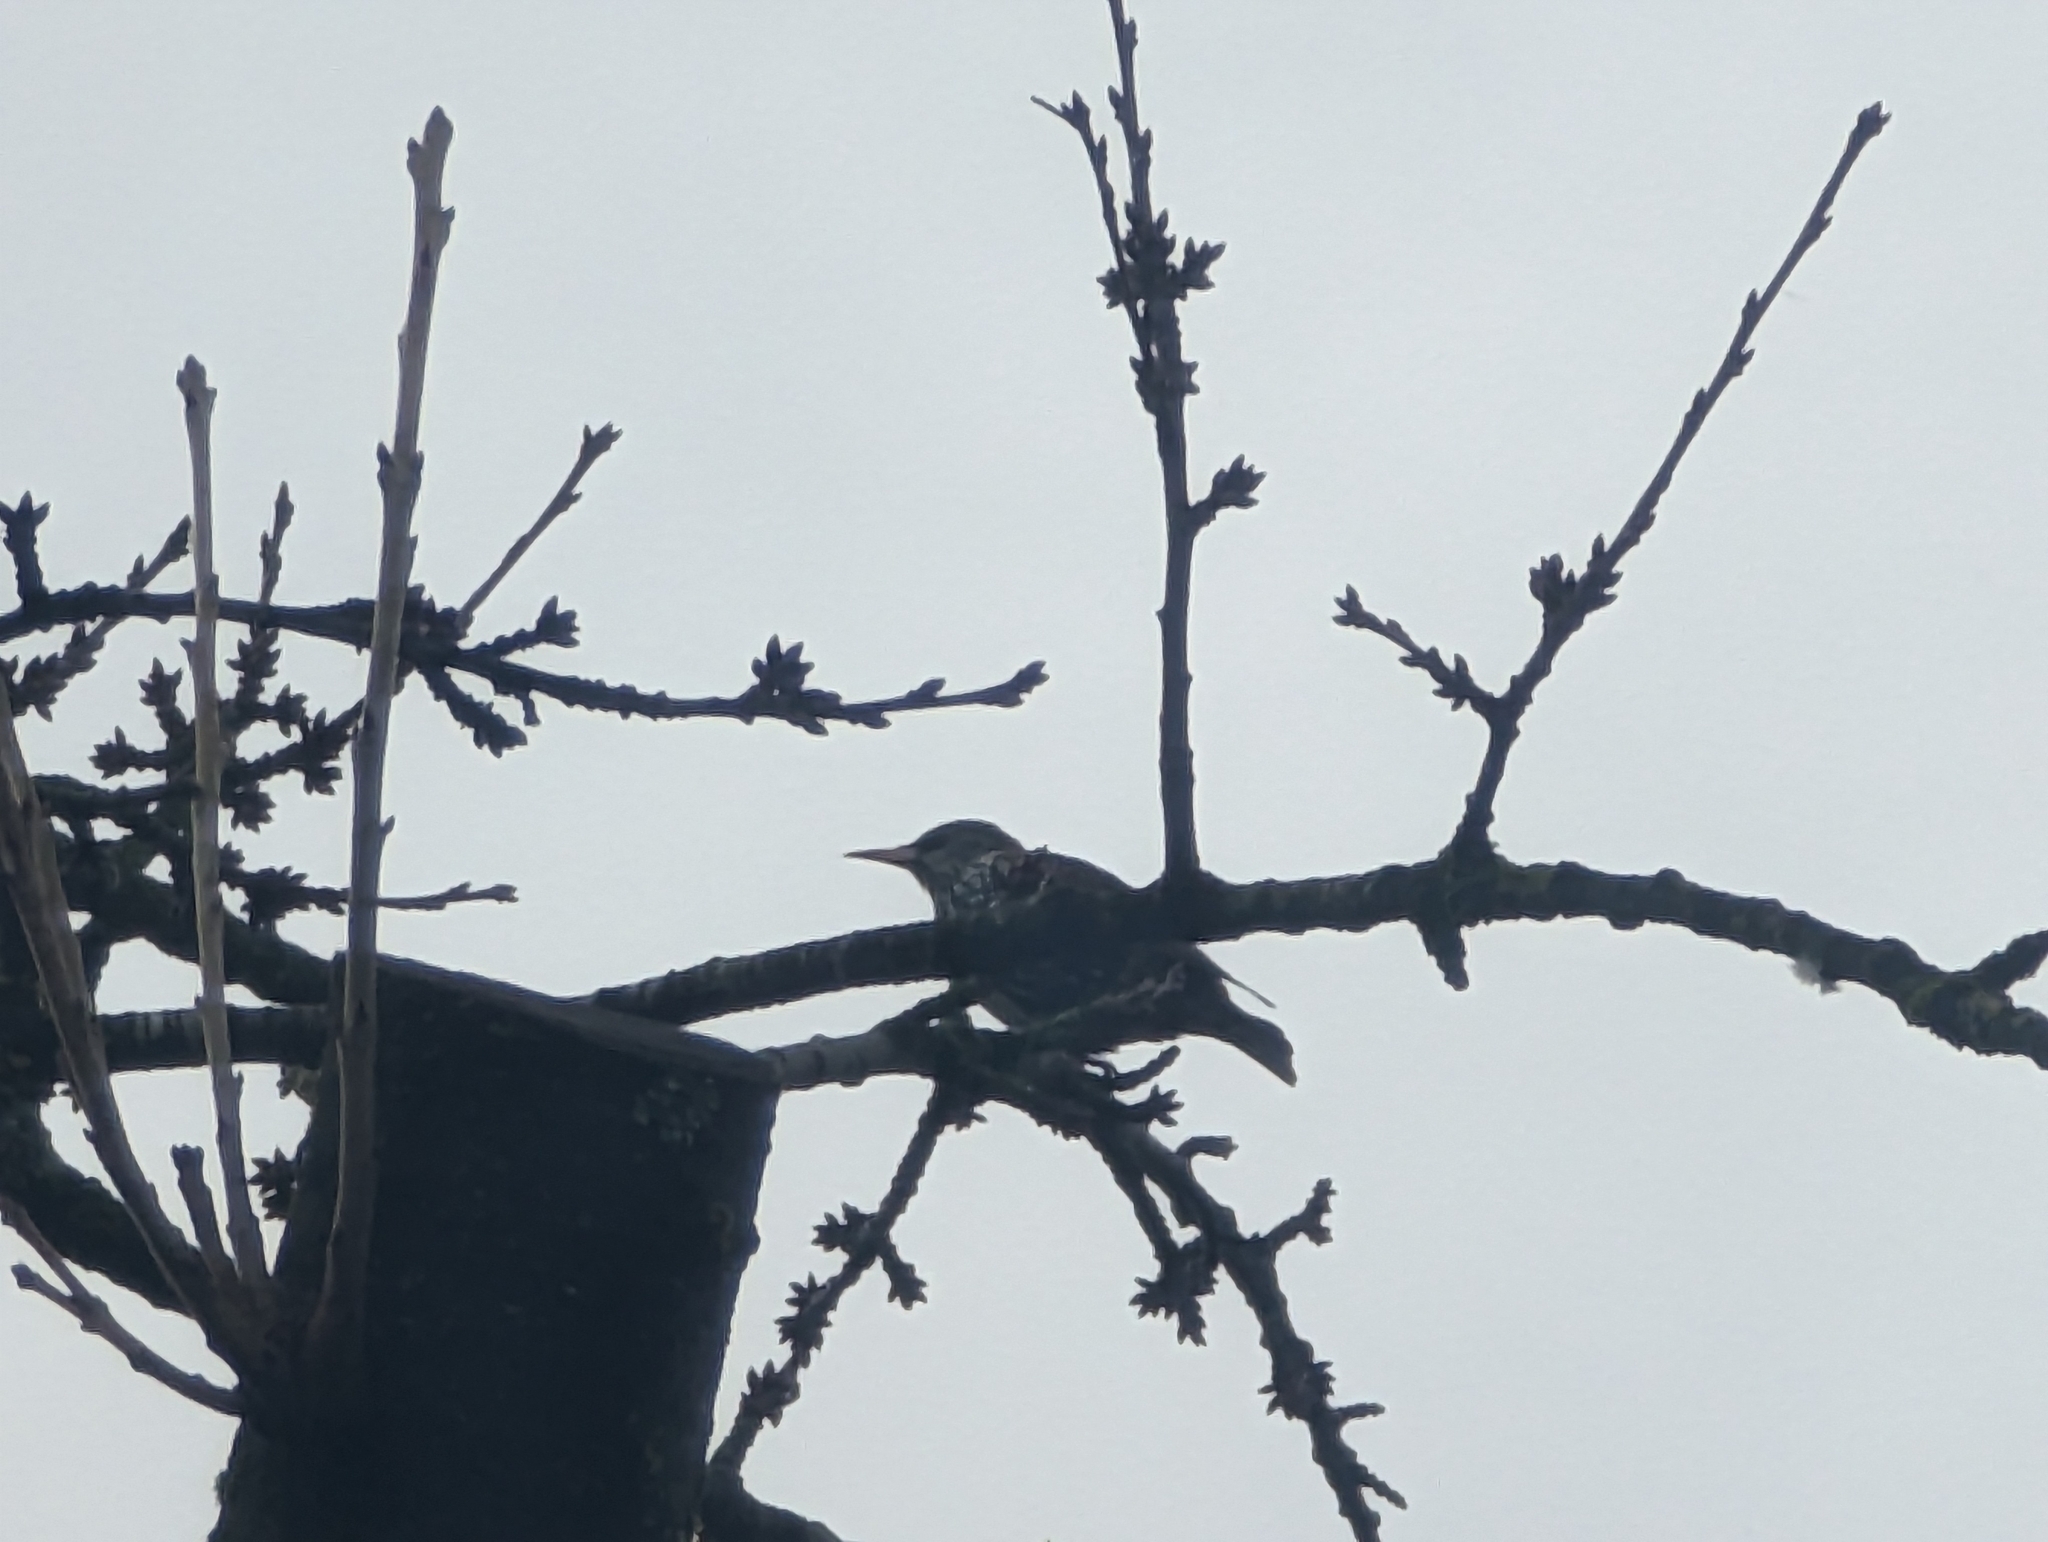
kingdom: Animalia
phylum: Chordata
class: Aves
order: Passeriformes
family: Sturnidae
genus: Sturnus
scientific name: Sturnus vulgaris
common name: Common starling
